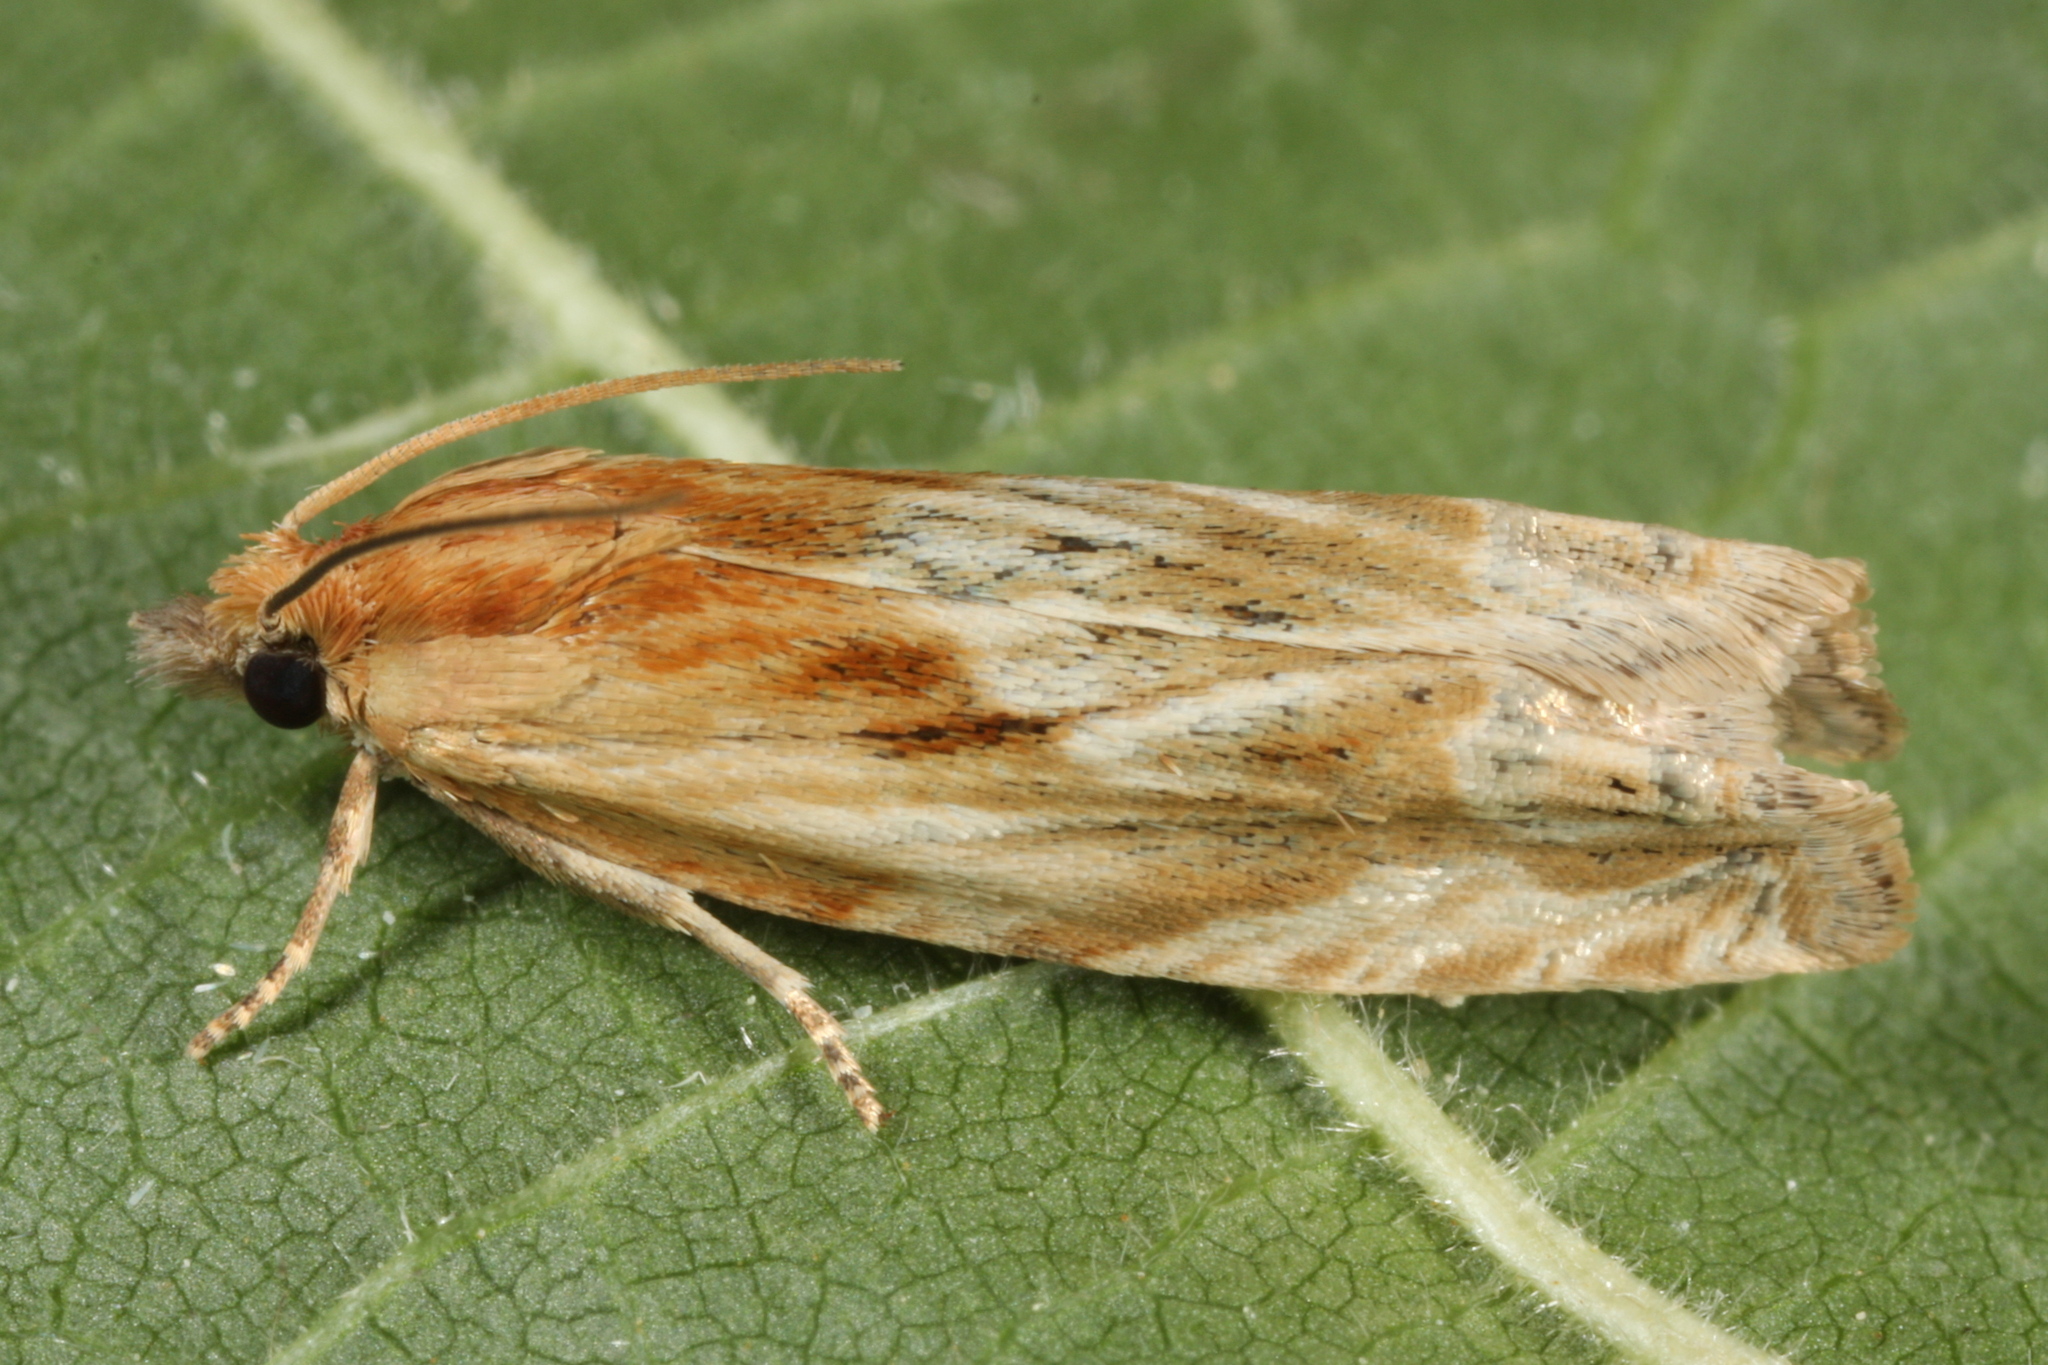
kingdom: Animalia
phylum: Arthropoda
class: Insecta
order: Lepidoptera
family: Tortricidae
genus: Eucosma
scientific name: Eucosma cana
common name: Hoary belle
